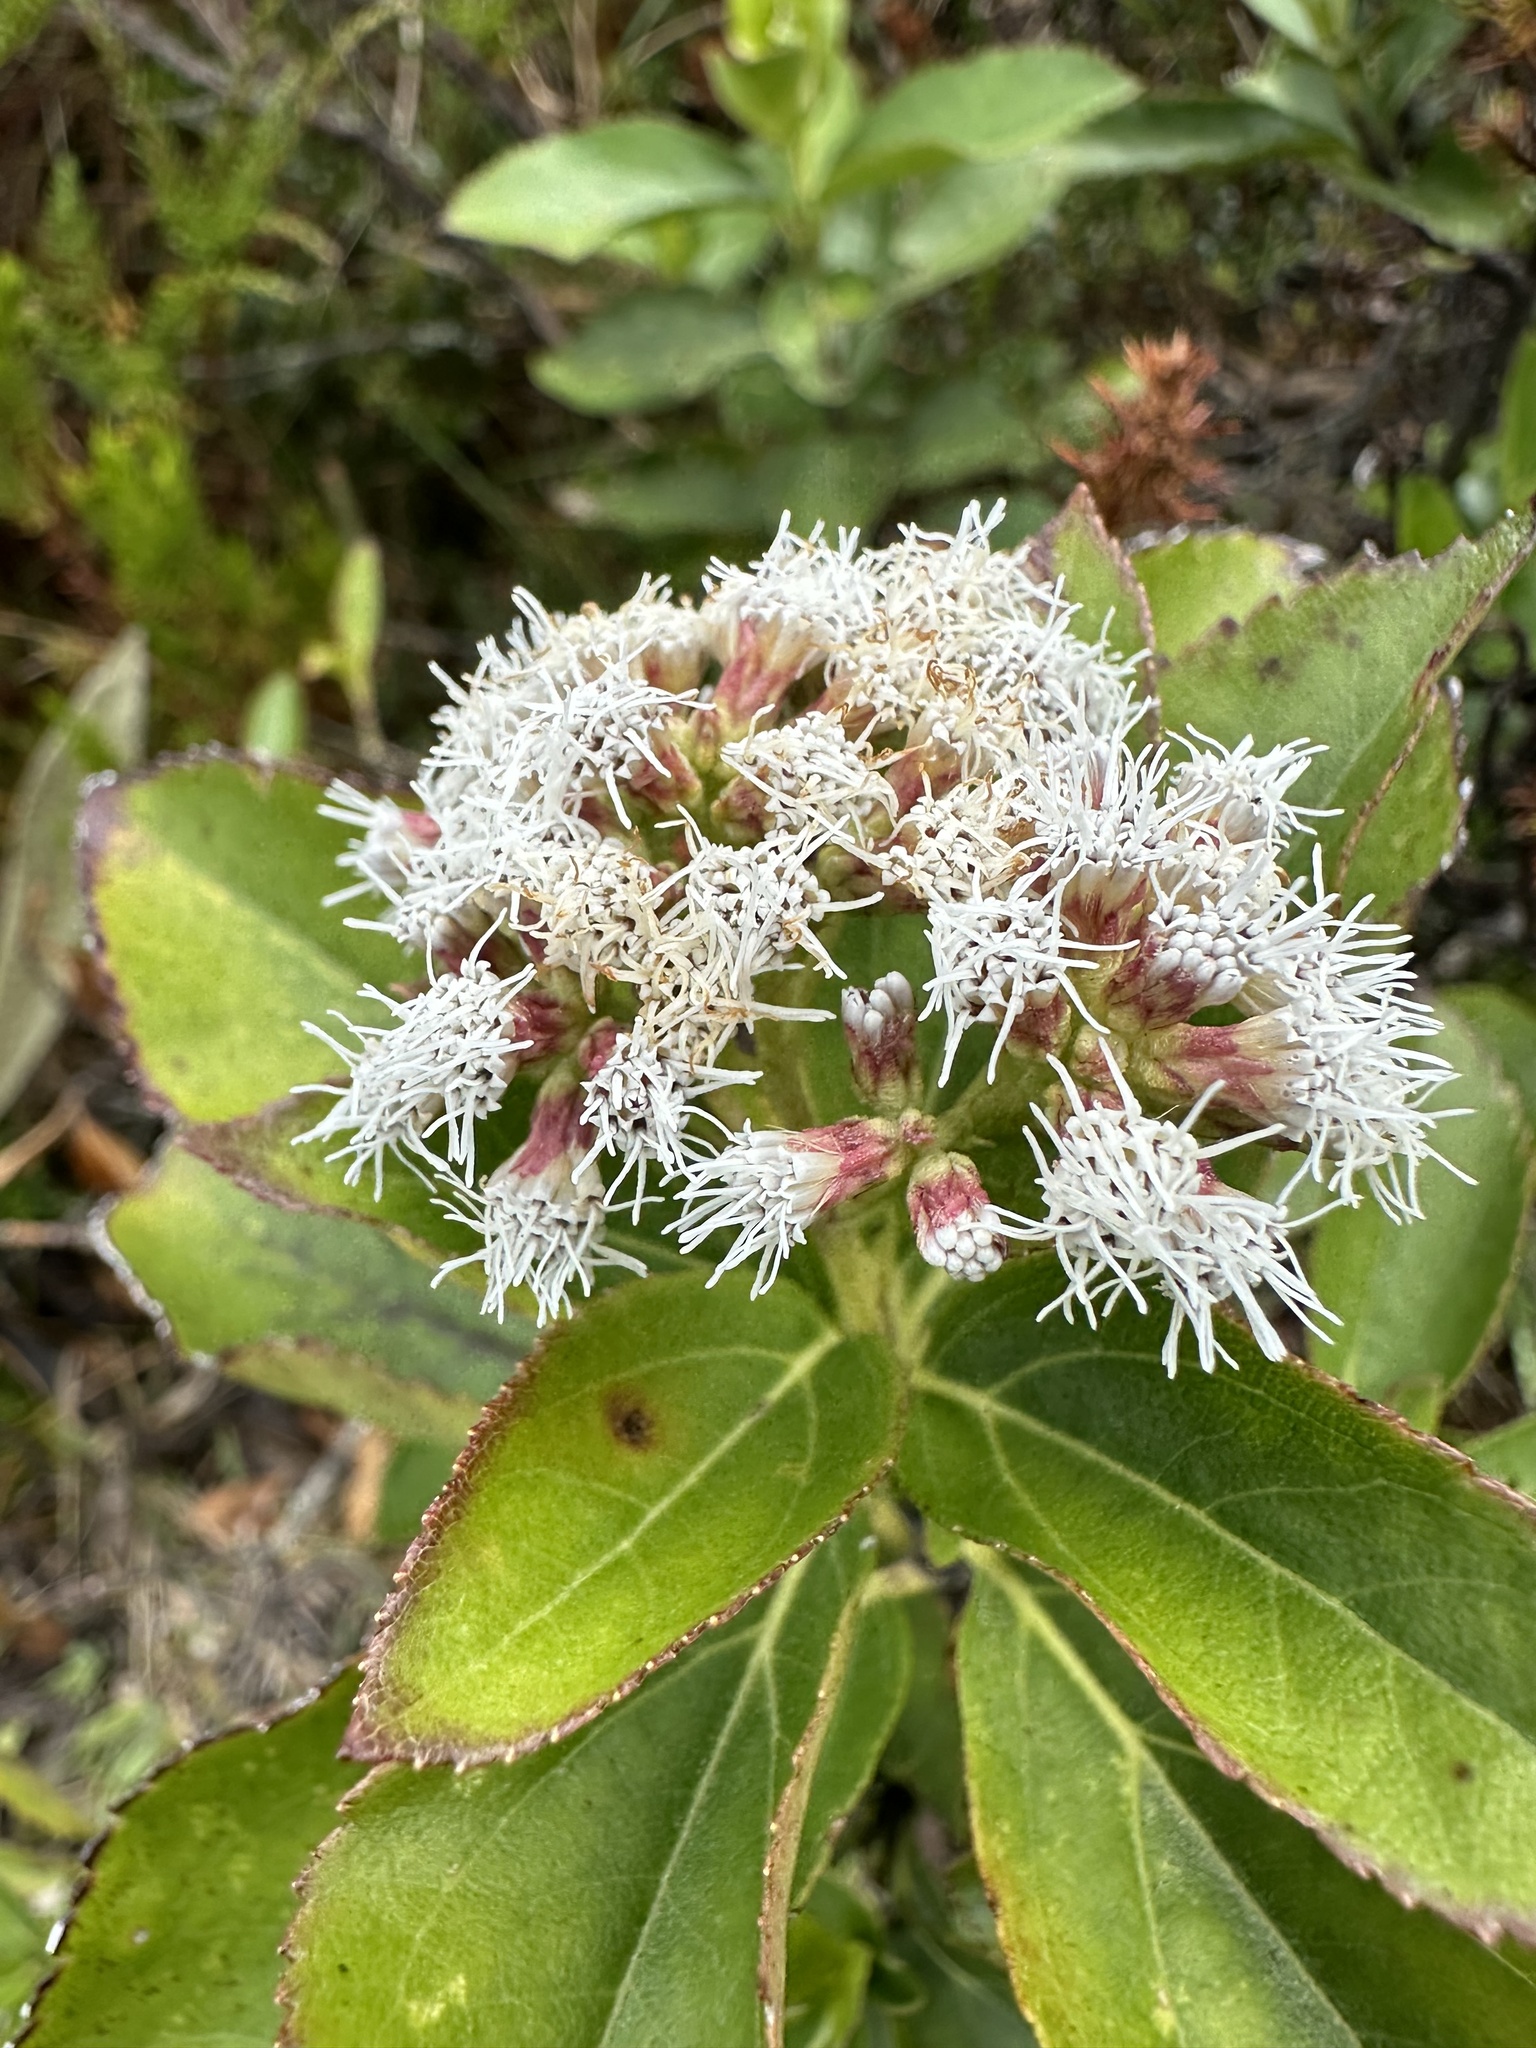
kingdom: Plantae
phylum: Tracheophyta
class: Magnoliopsida
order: Asterales
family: Asteraceae
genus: Ageratina
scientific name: Ageratina tinifolia
